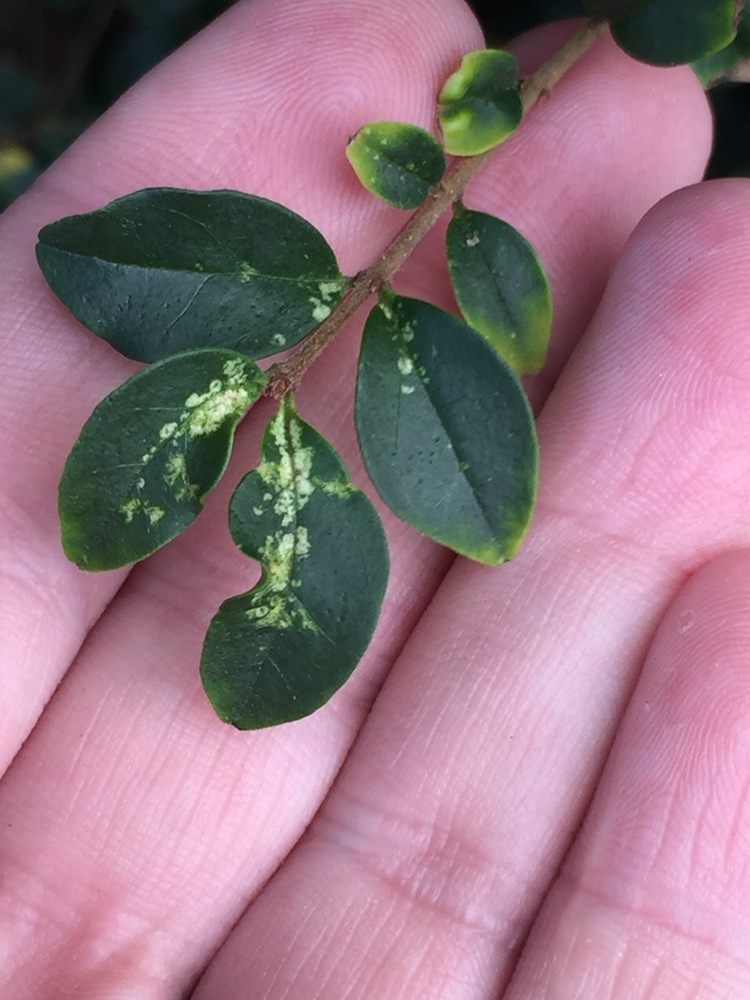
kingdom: Animalia
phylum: Arthropoda
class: Insecta
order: Hemiptera
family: Tingidae
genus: Leptoypha
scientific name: Leptoypha hospita
